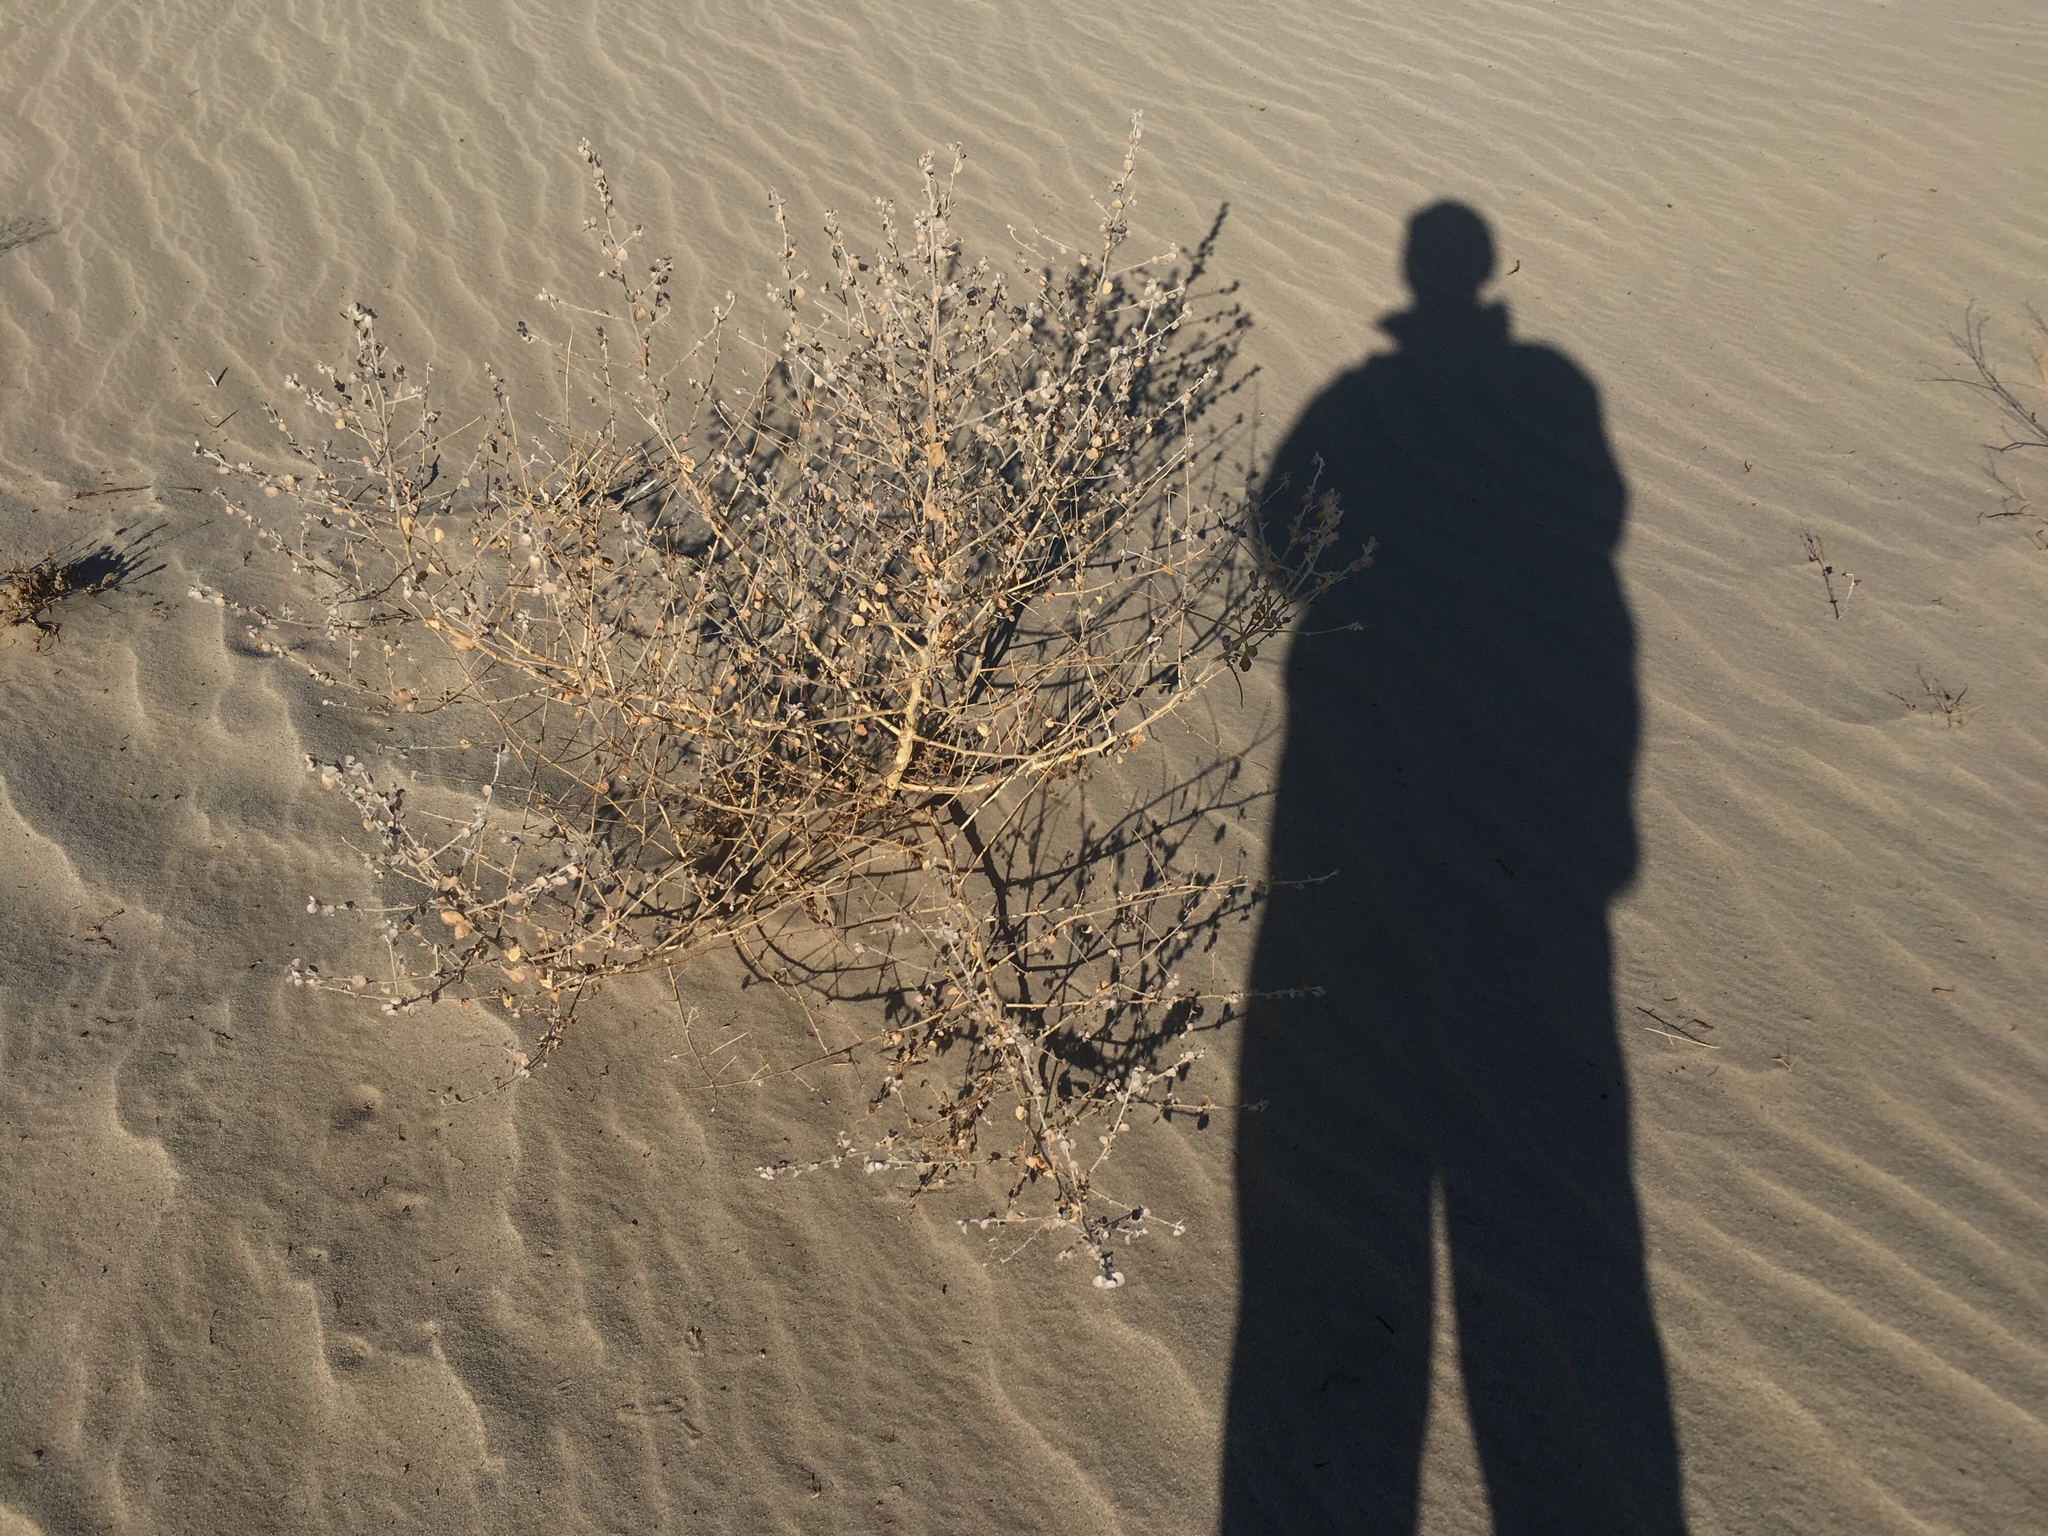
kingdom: Plantae
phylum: Tracheophyta
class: Magnoliopsida
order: Asterales
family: Asteraceae
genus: Dicoria
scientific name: Dicoria canescens
